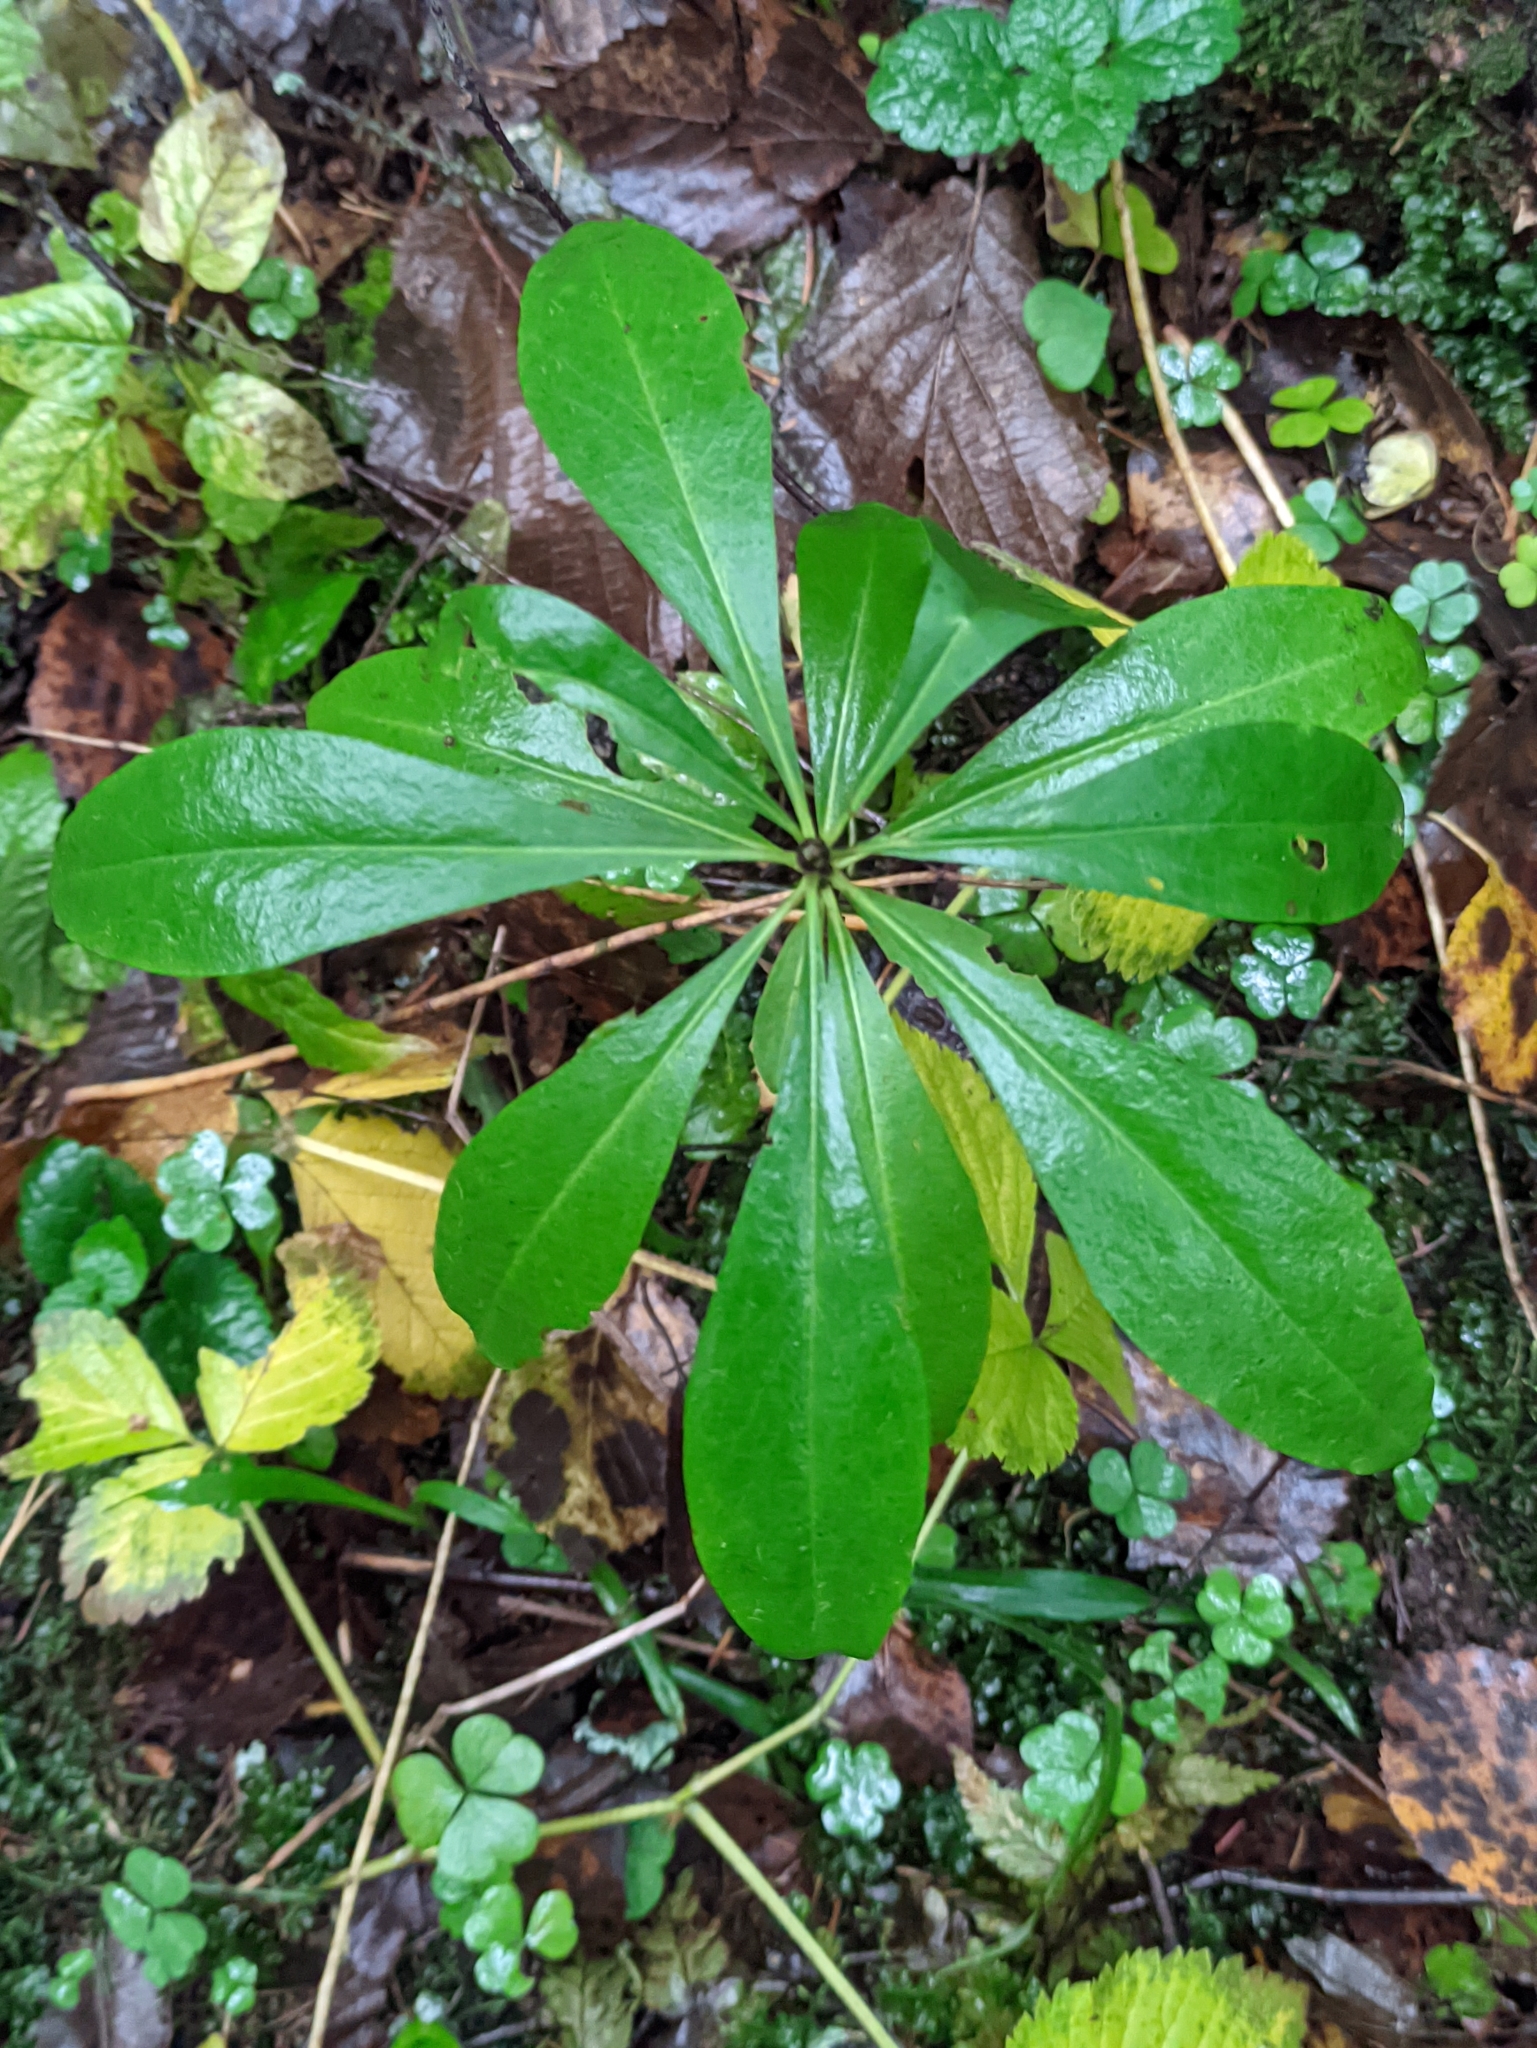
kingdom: Plantae
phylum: Tracheophyta
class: Magnoliopsida
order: Malvales
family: Thymelaeaceae
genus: Daphne
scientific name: Daphne mezereum
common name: Mezereon
